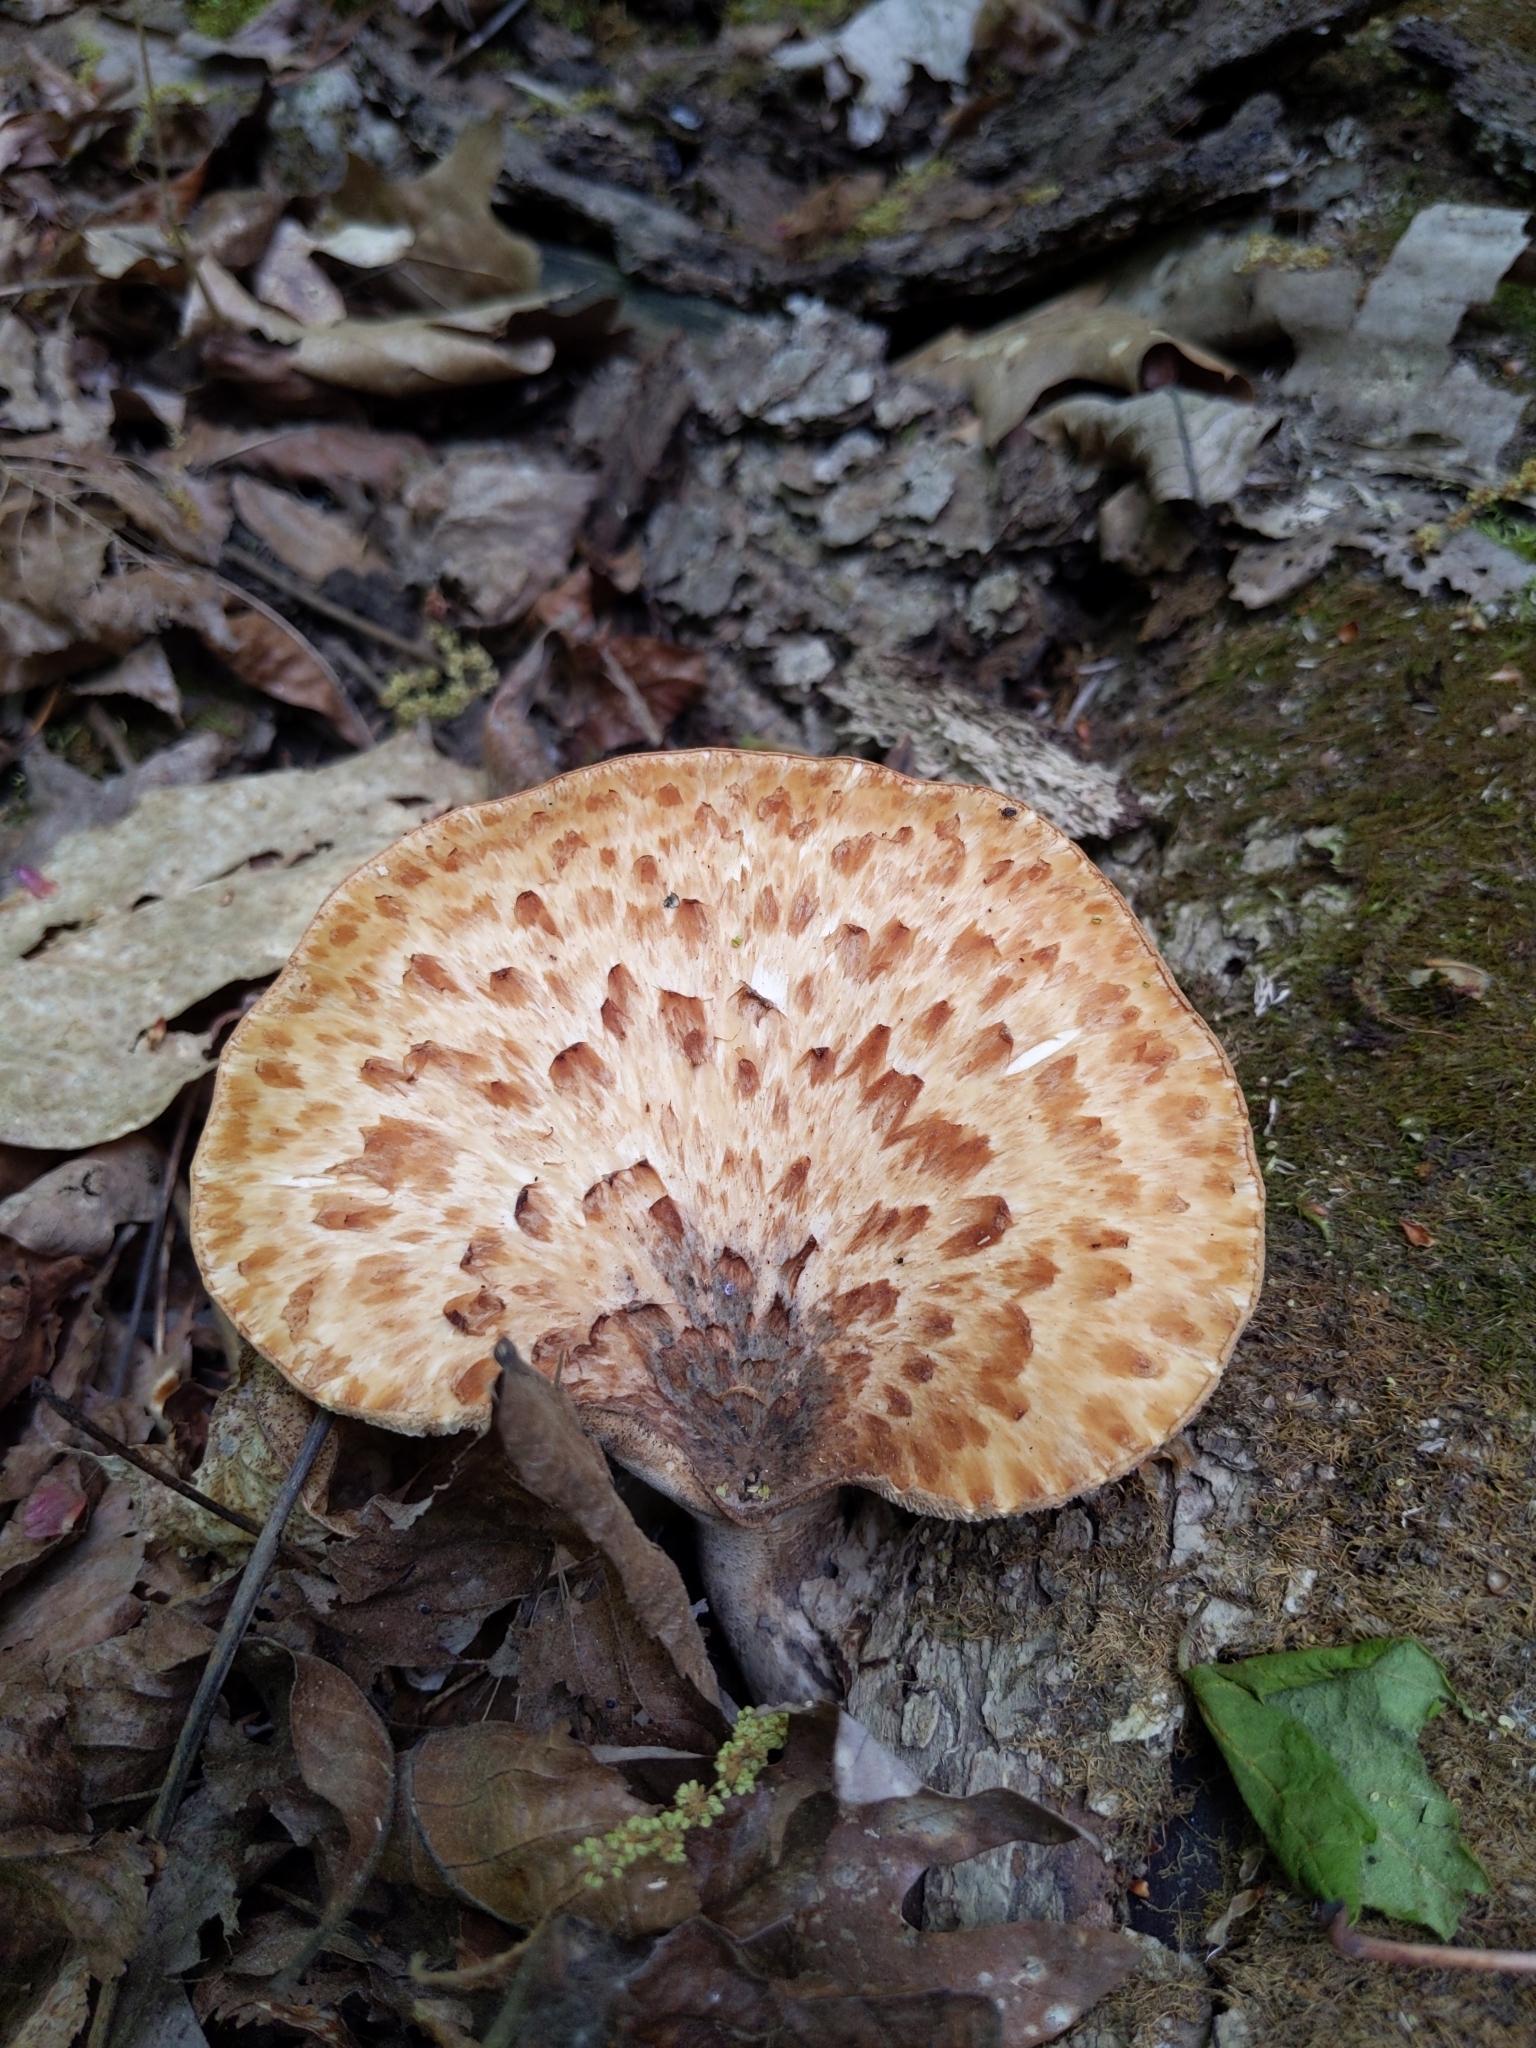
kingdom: Fungi
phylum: Basidiomycota
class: Agaricomycetes
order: Polyporales
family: Polyporaceae
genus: Cerioporus
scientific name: Cerioporus squamosus
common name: Dryad's saddle
